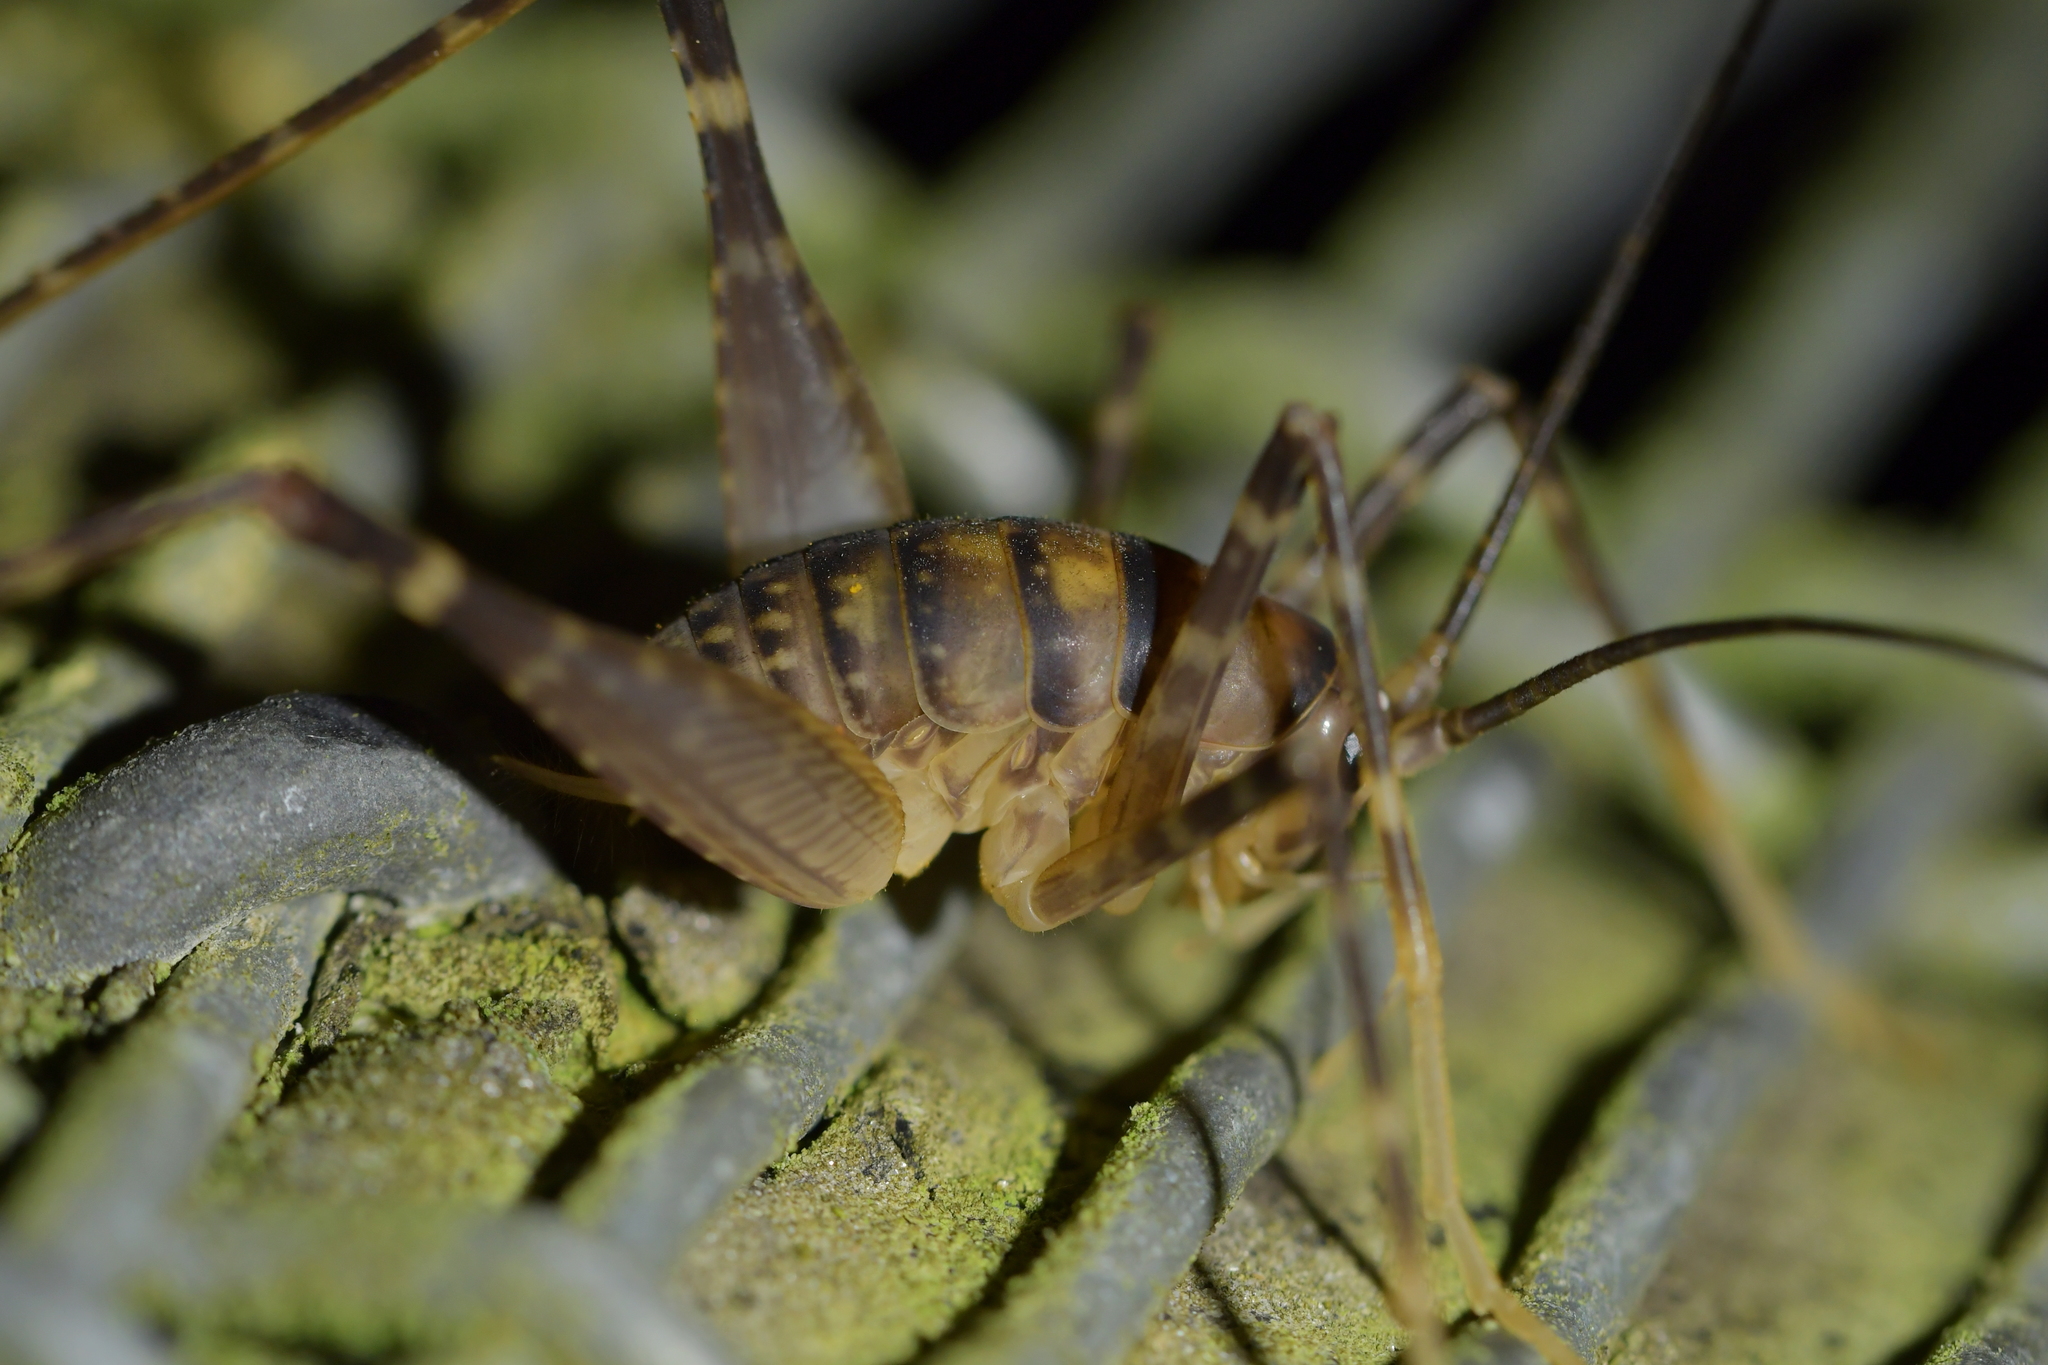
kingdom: Animalia
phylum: Arthropoda
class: Insecta
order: Orthoptera
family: Rhaphidophoridae
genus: Pachyrhamma
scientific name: Pachyrhamma edwardsii
